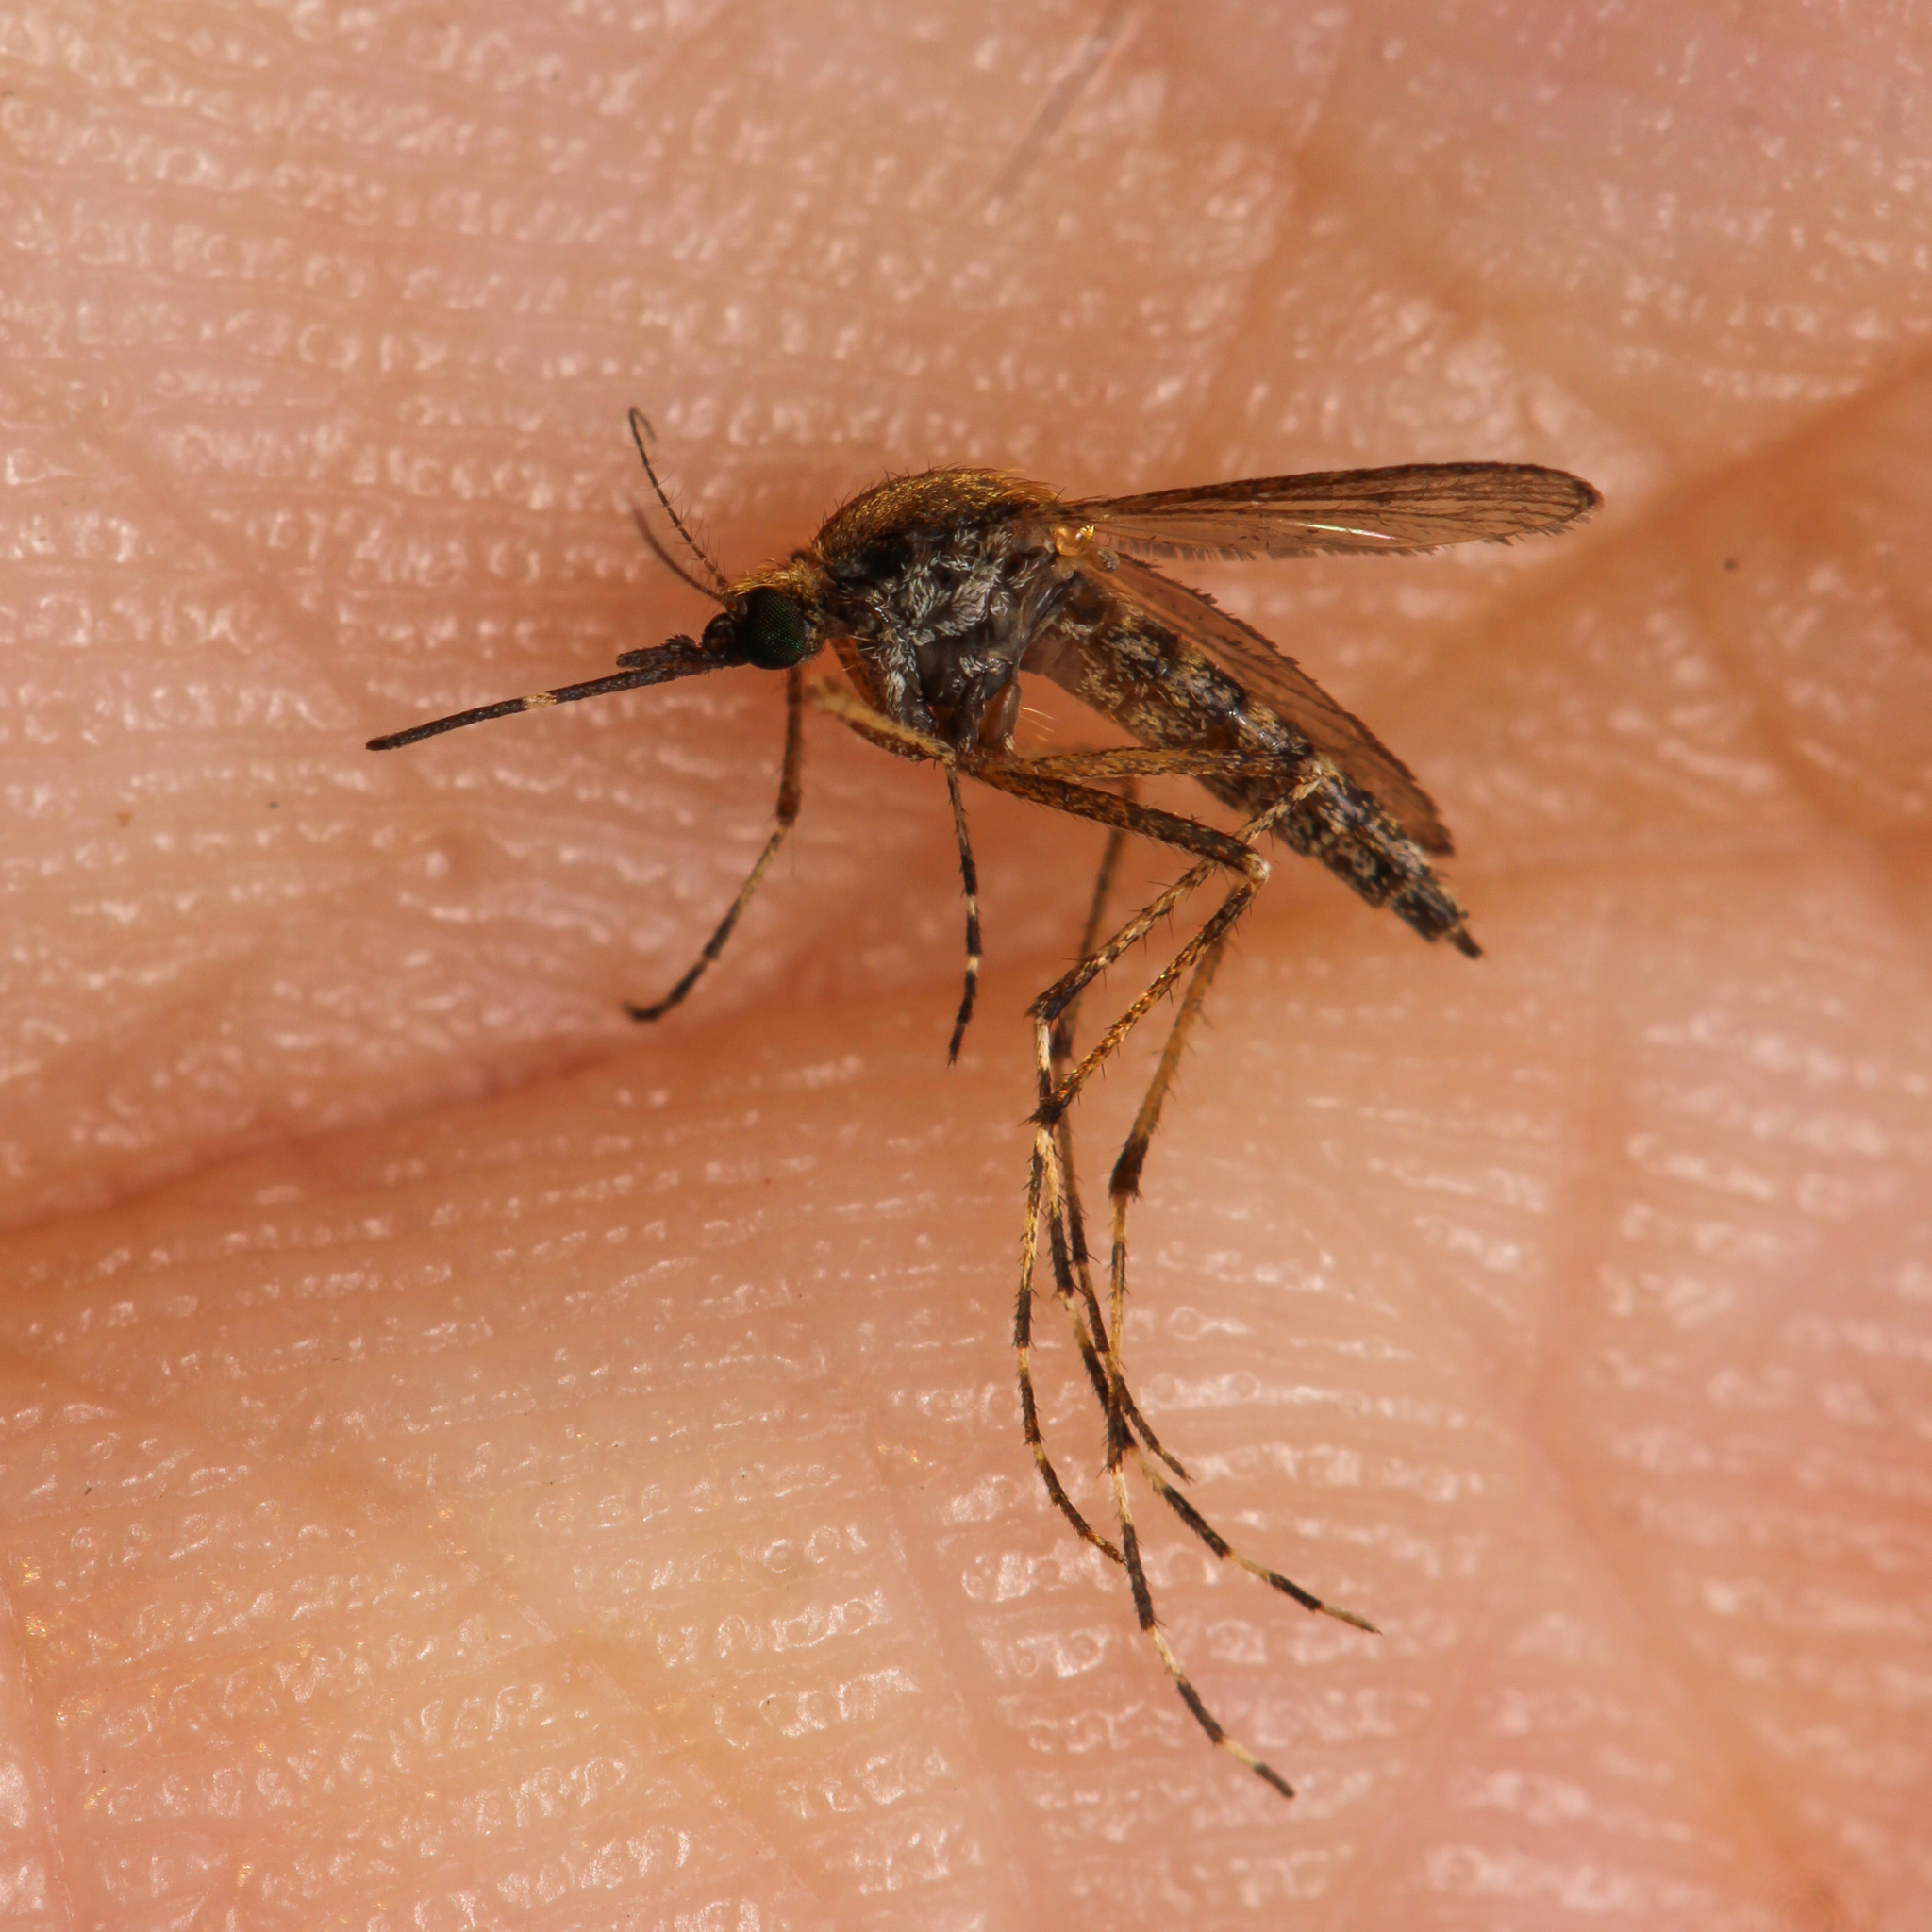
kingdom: Animalia
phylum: Arthropoda
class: Insecta
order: Diptera
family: Culicidae
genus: Aedes
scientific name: Aedes sollicitans
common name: Saltmarsh mosquito
